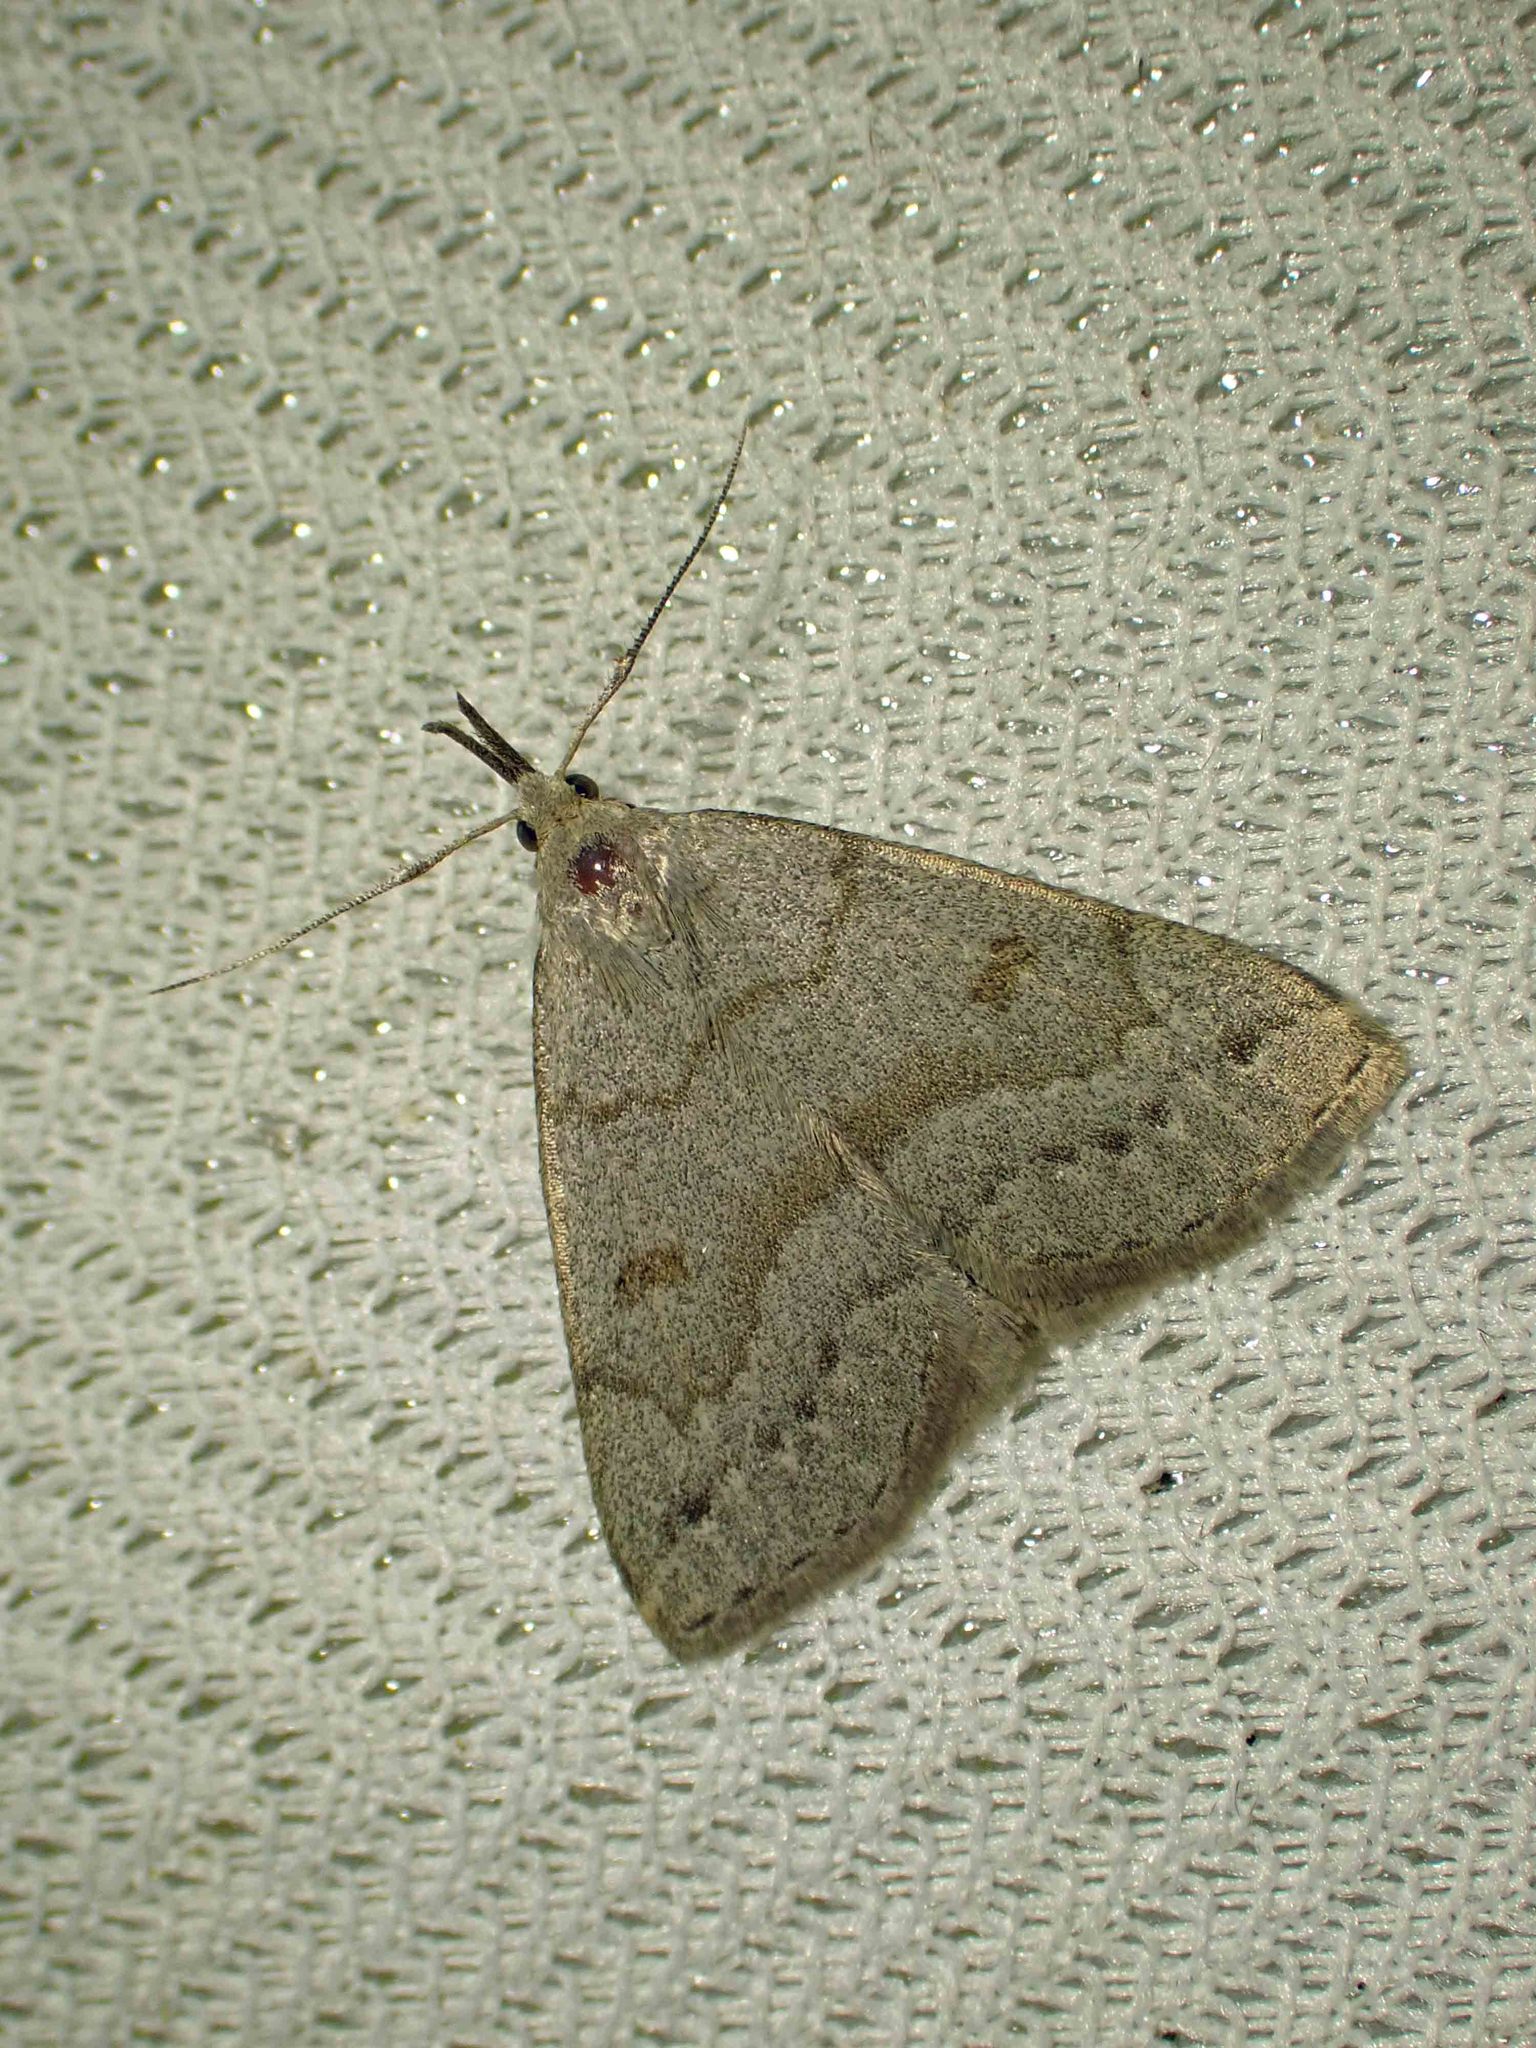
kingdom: Animalia
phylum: Arthropoda
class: Insecta
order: Lepidoptera
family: Erebidae
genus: Macrochilo
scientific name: Macrochilo morbidalis
